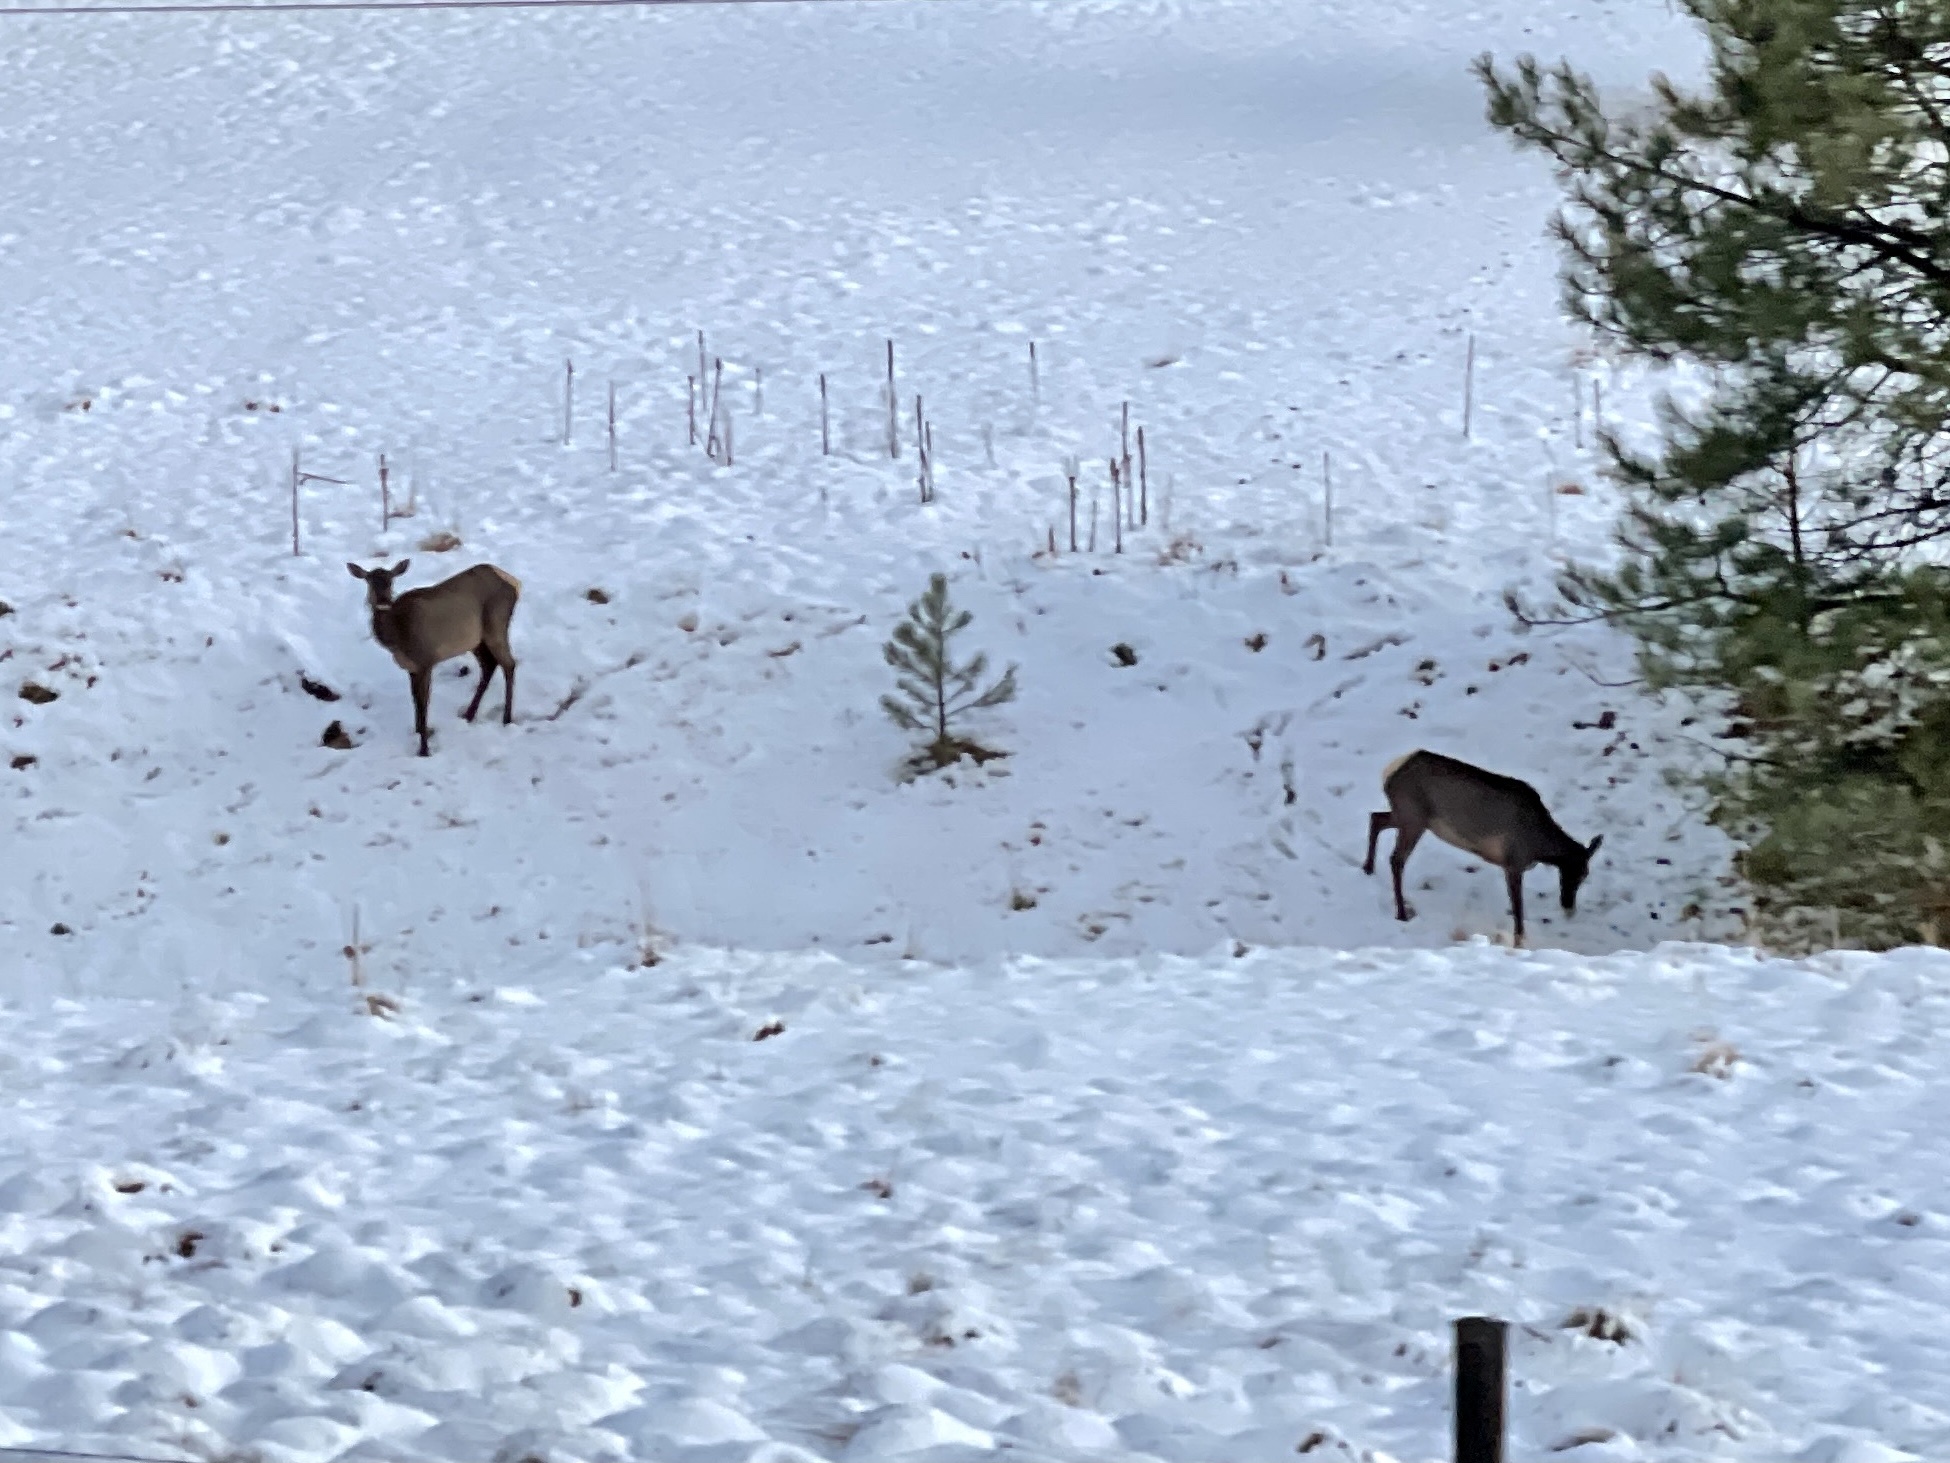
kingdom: Animalia
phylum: Chordata
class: Mammalia
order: Artiodactyla
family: Cervidae
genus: Cervus
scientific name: Cervus elaphus
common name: Red deer
